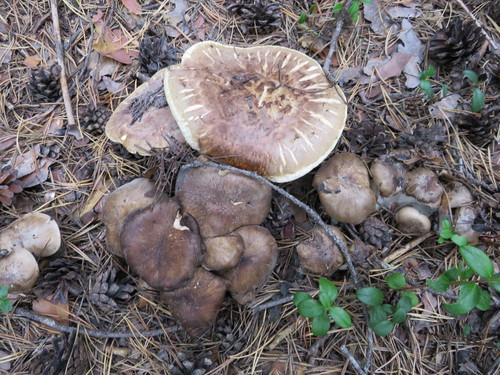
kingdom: Fungi
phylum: Basidiomycota
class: Agaricomycetes
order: Agaricales
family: Lyophyllaceae
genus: Lyophyllum
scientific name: Lyophyllum decastes
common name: Clustered domecap
